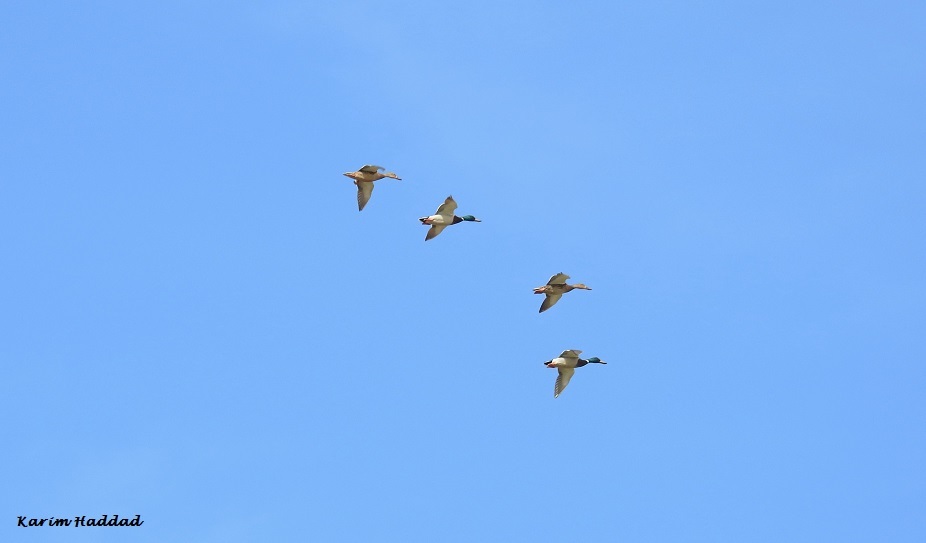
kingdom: Animalia
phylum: Chordata
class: Aves
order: Anseriformes
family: Anatidae
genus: Anas
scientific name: Anas platyrhynchos
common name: Mallard
